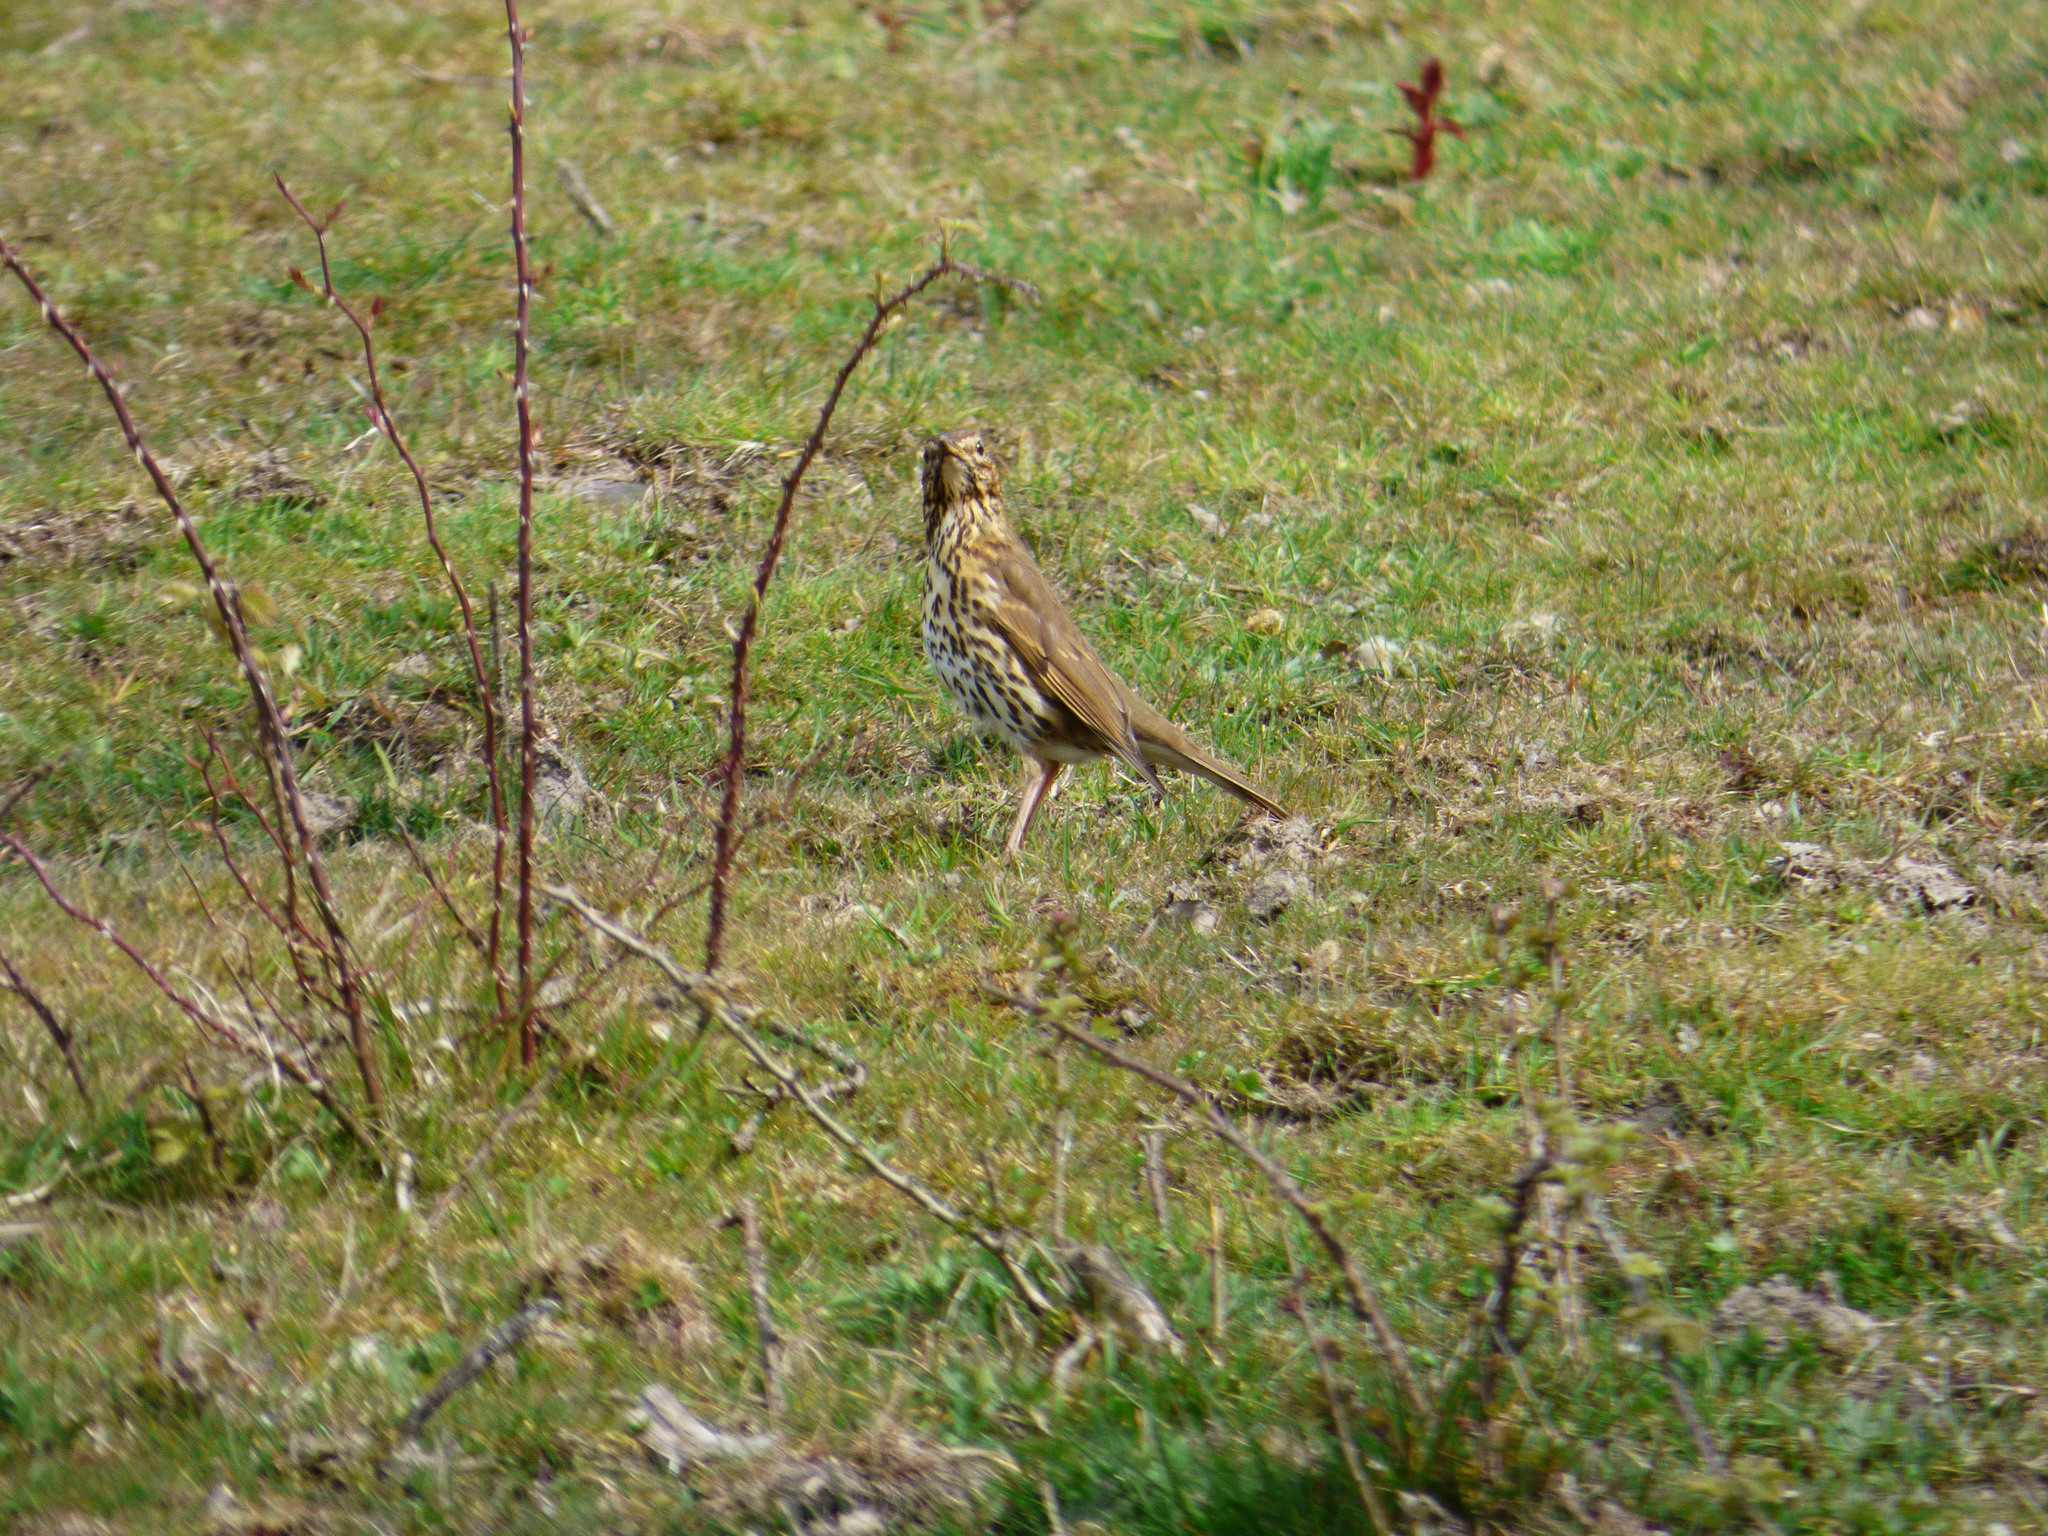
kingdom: Animalia
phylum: Chordata
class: Aves
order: Passeriformes
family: Turdidae
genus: Turdus
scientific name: Turdus philomelos
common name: Song thrush
